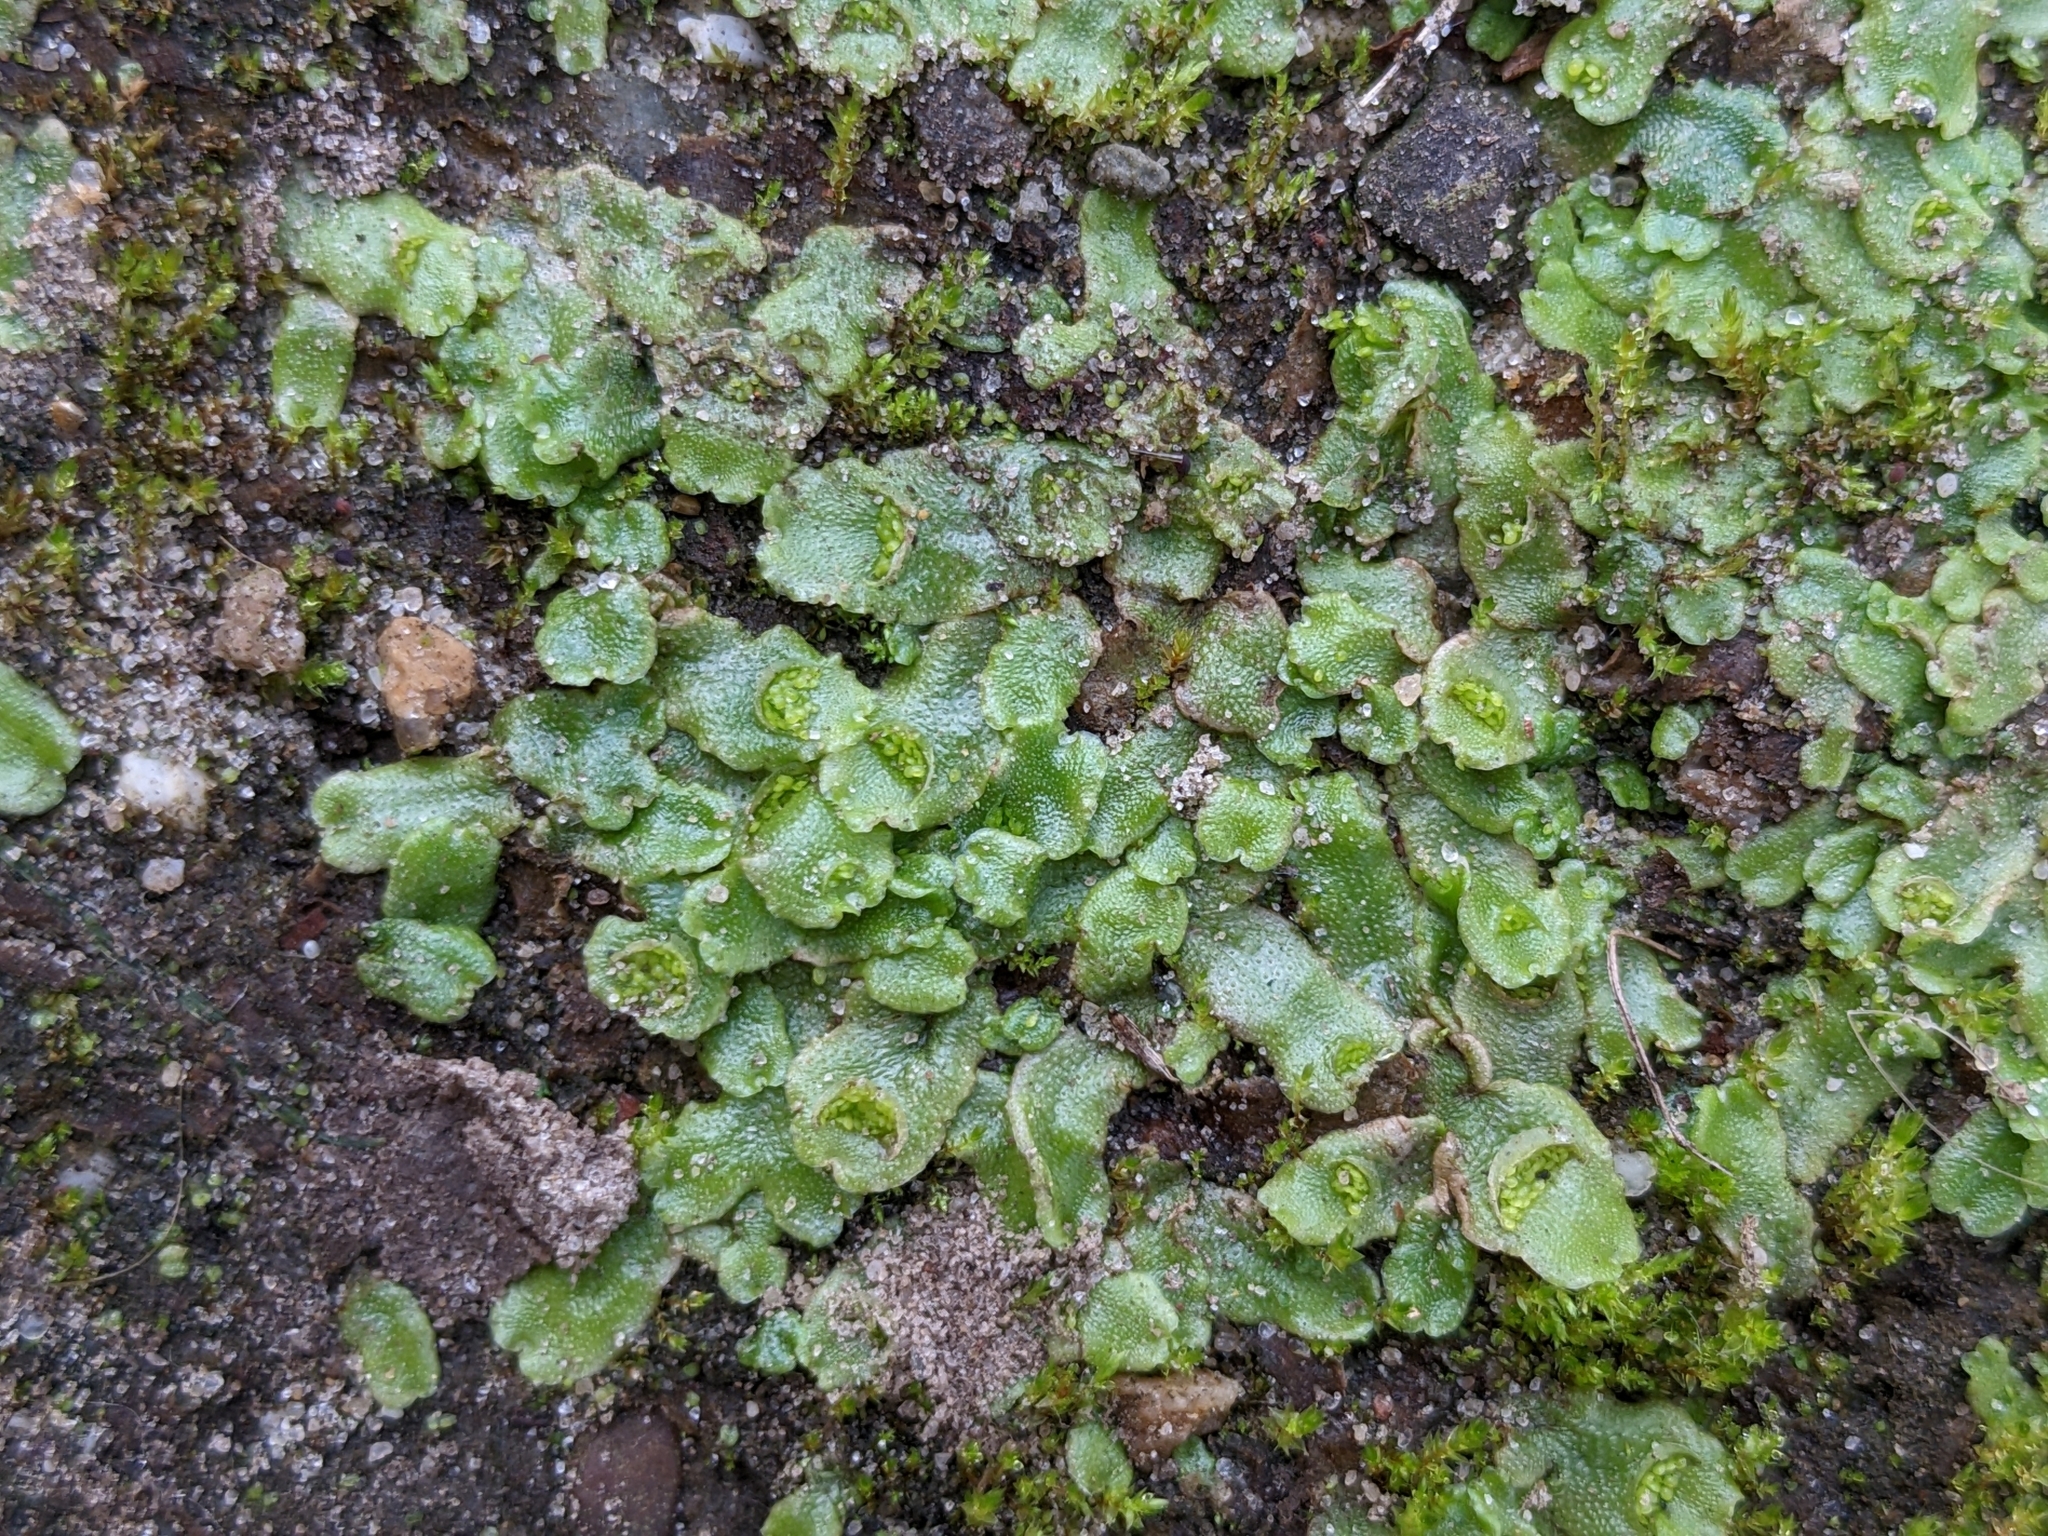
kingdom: Plantae
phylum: Marchantiophyta
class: Marchantiopsida
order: Lunulariales
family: Lunulariaceae
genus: Lunularia
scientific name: Lunularia cruciata
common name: Crescent-cup liverwort
